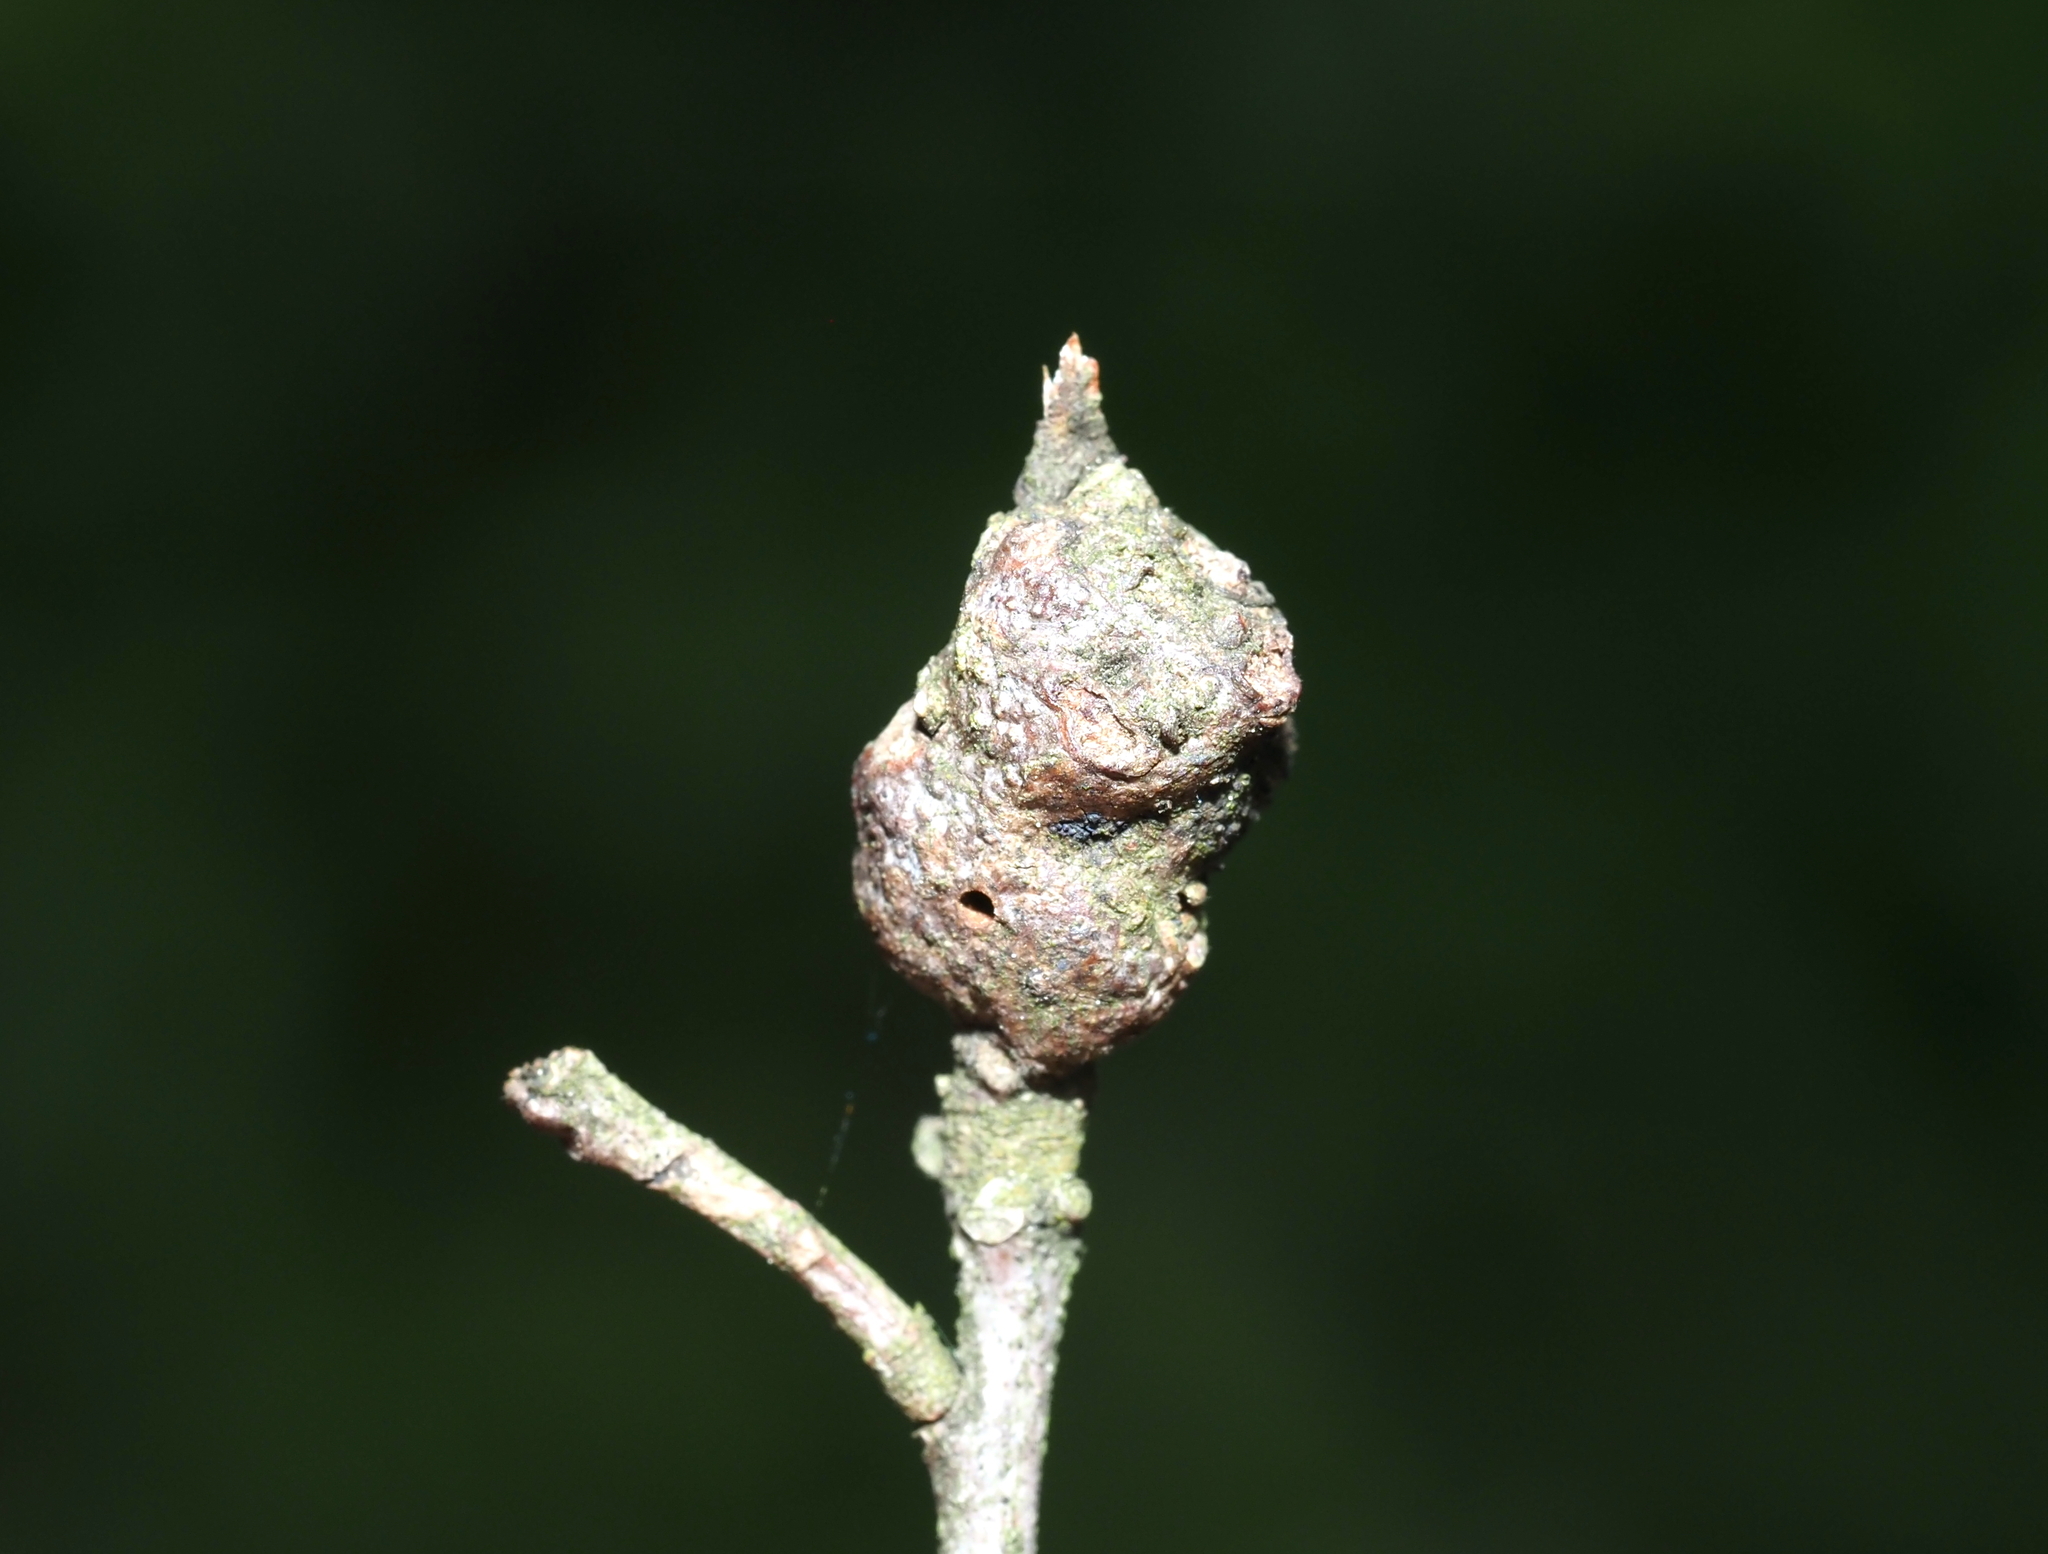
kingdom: Animalia
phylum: Arthropoda
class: Insecta
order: Hymenoptera
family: Cynipidae
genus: Callirhytis
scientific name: Callirhytis
